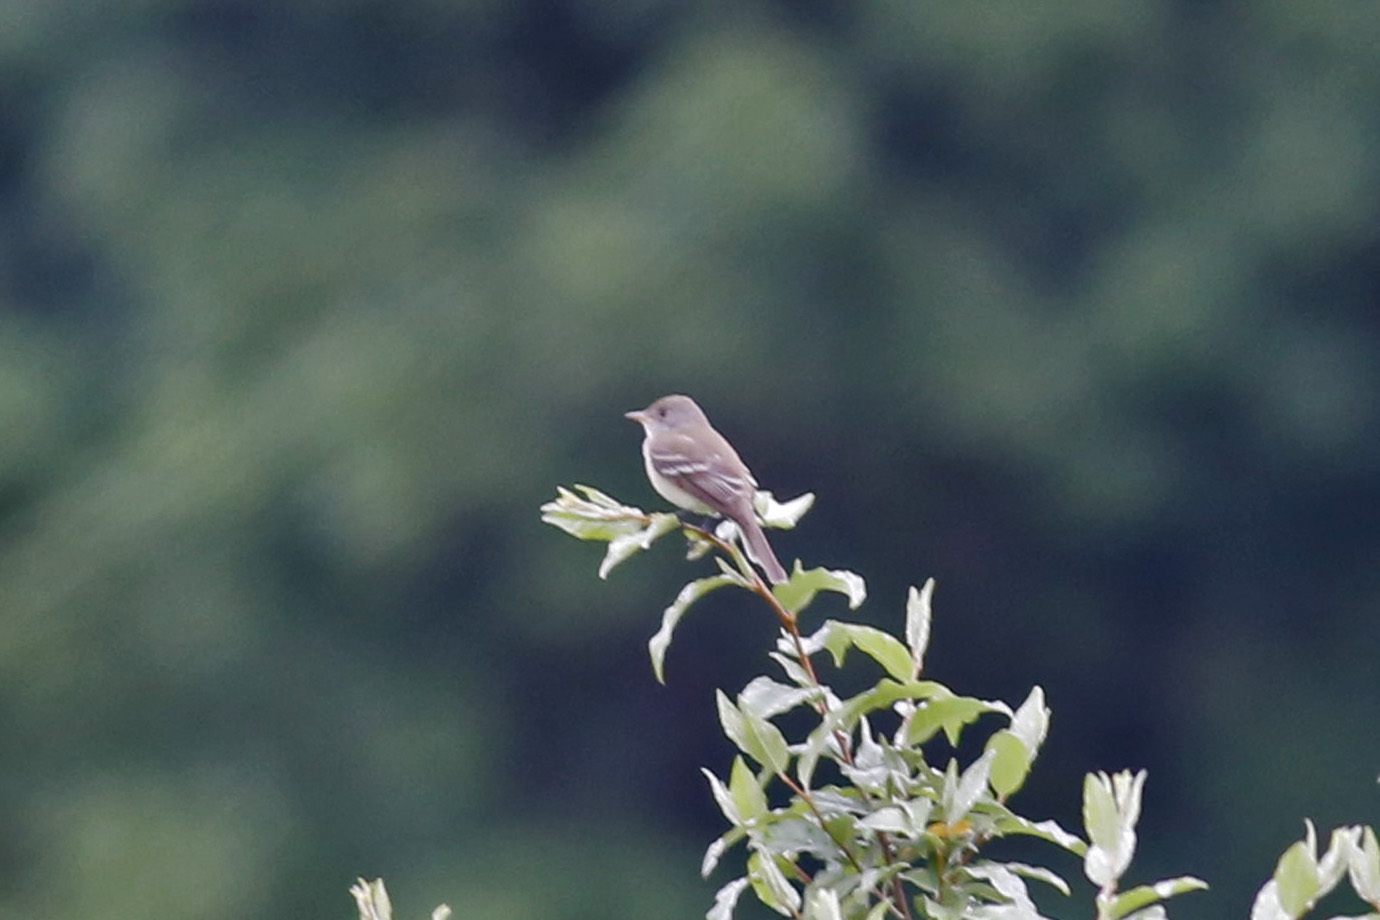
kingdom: Animalia
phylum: Chordata
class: Aves
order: Passeriformes
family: Tyrannidae
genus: Empidonax
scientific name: Empidonax traillii
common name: Willow flycatcher
